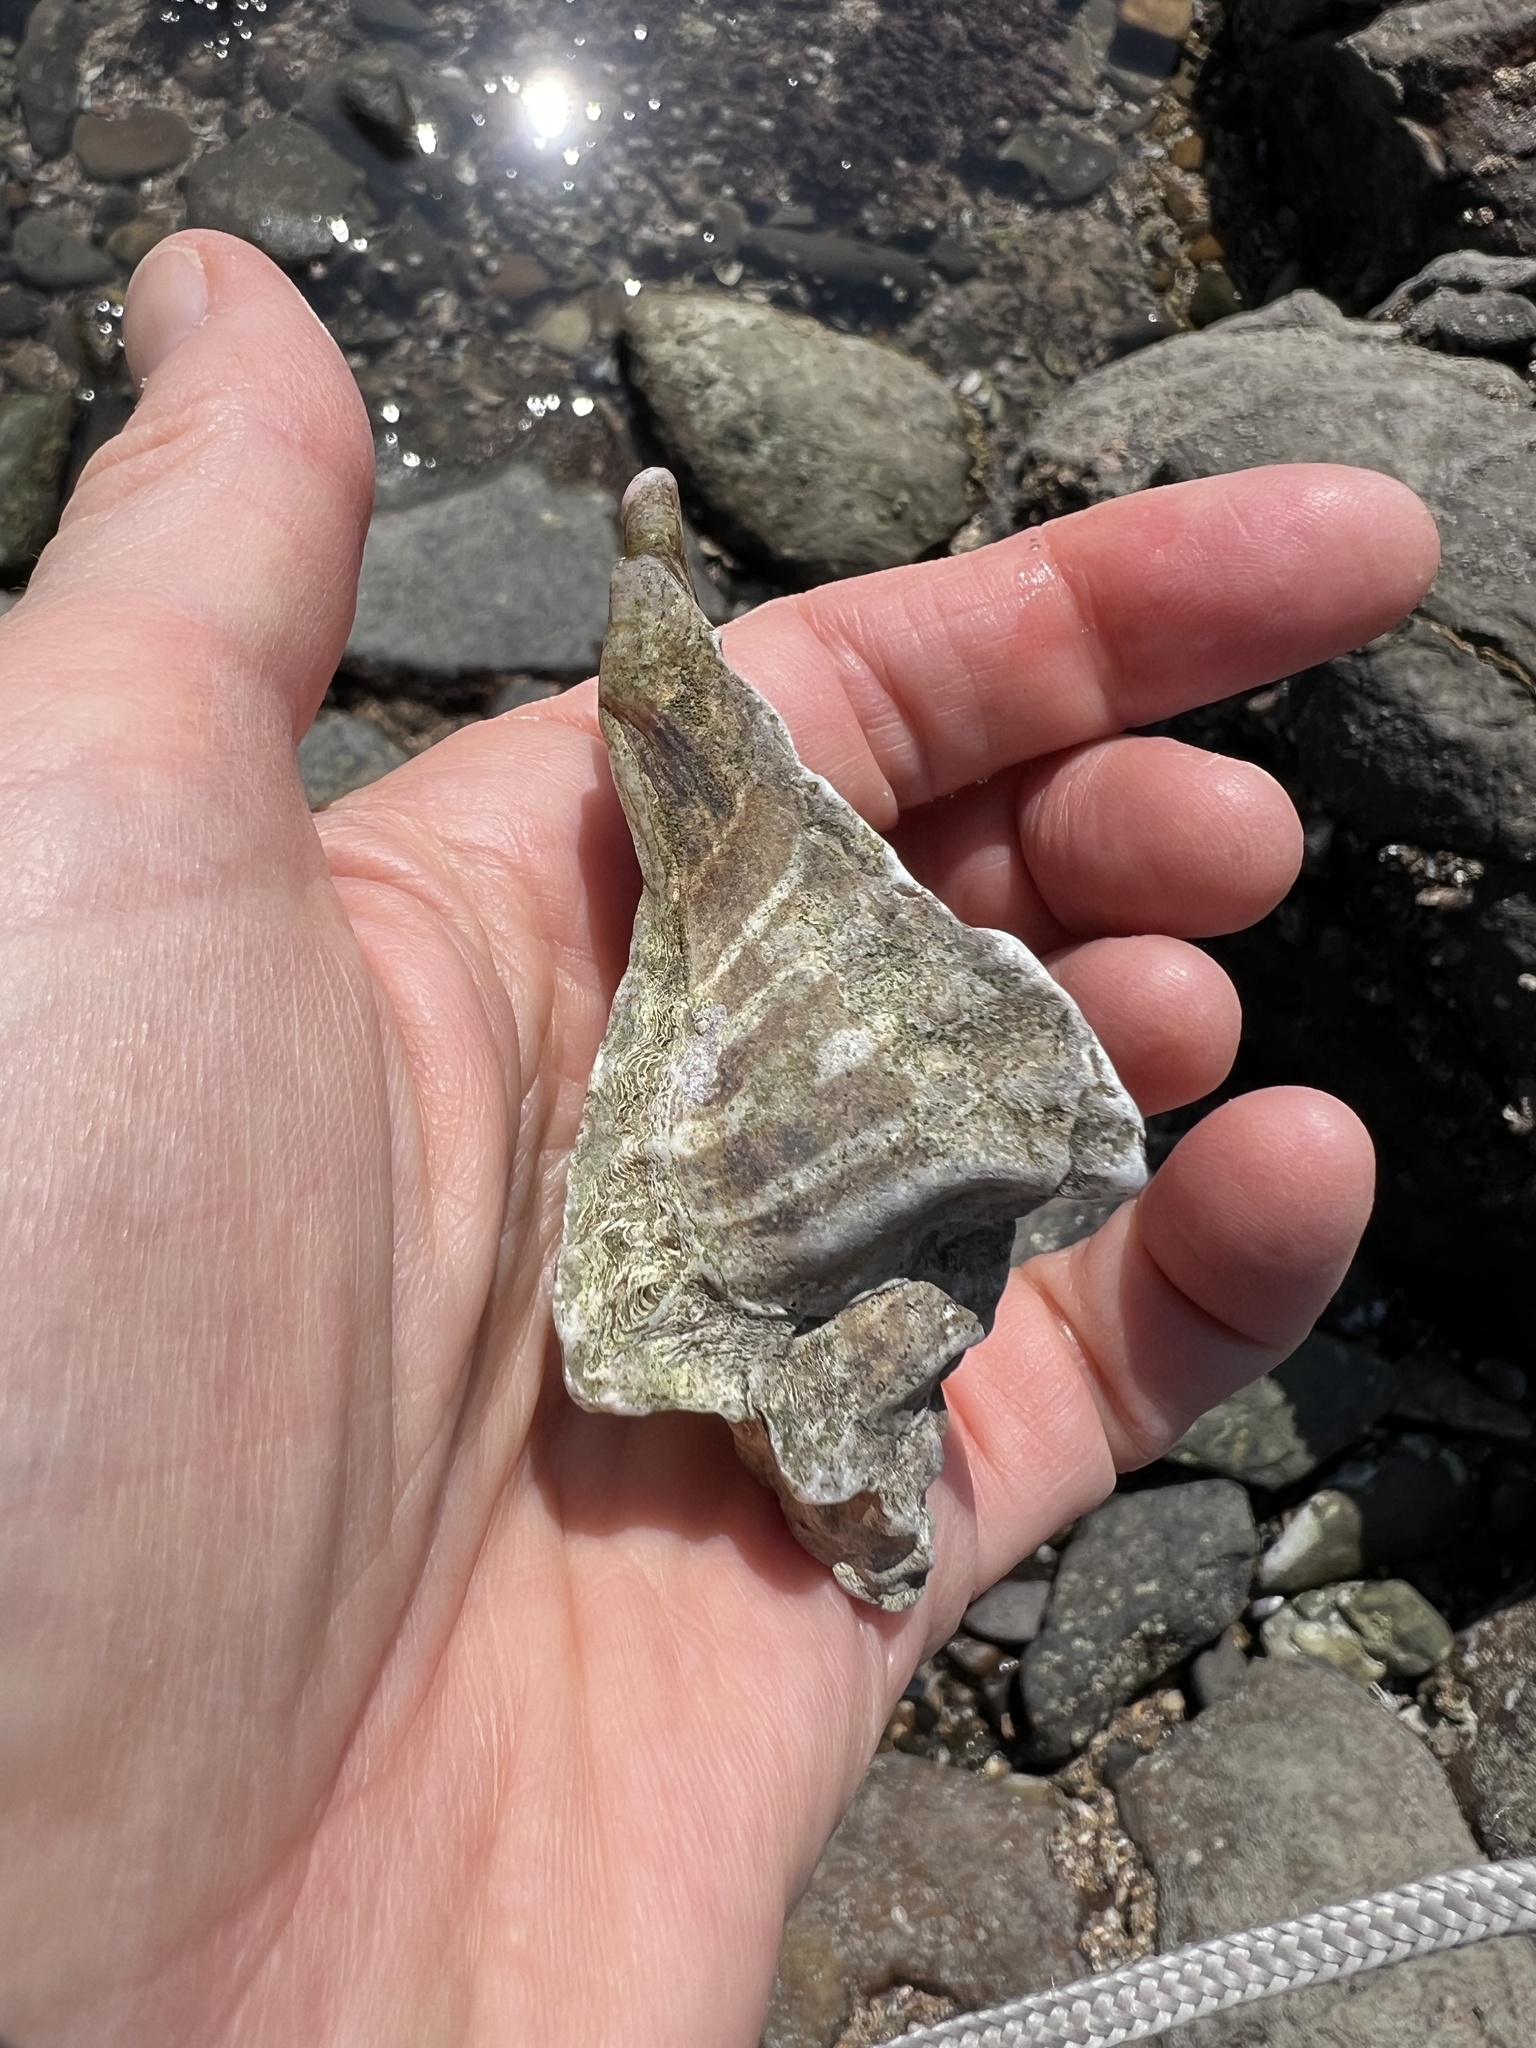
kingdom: Animalia
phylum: Mollusca
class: Gastropoda
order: Neogastropoda
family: Muricidae
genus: Pteropurpura
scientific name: Pteropurpura trialata
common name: Three-winged murex
